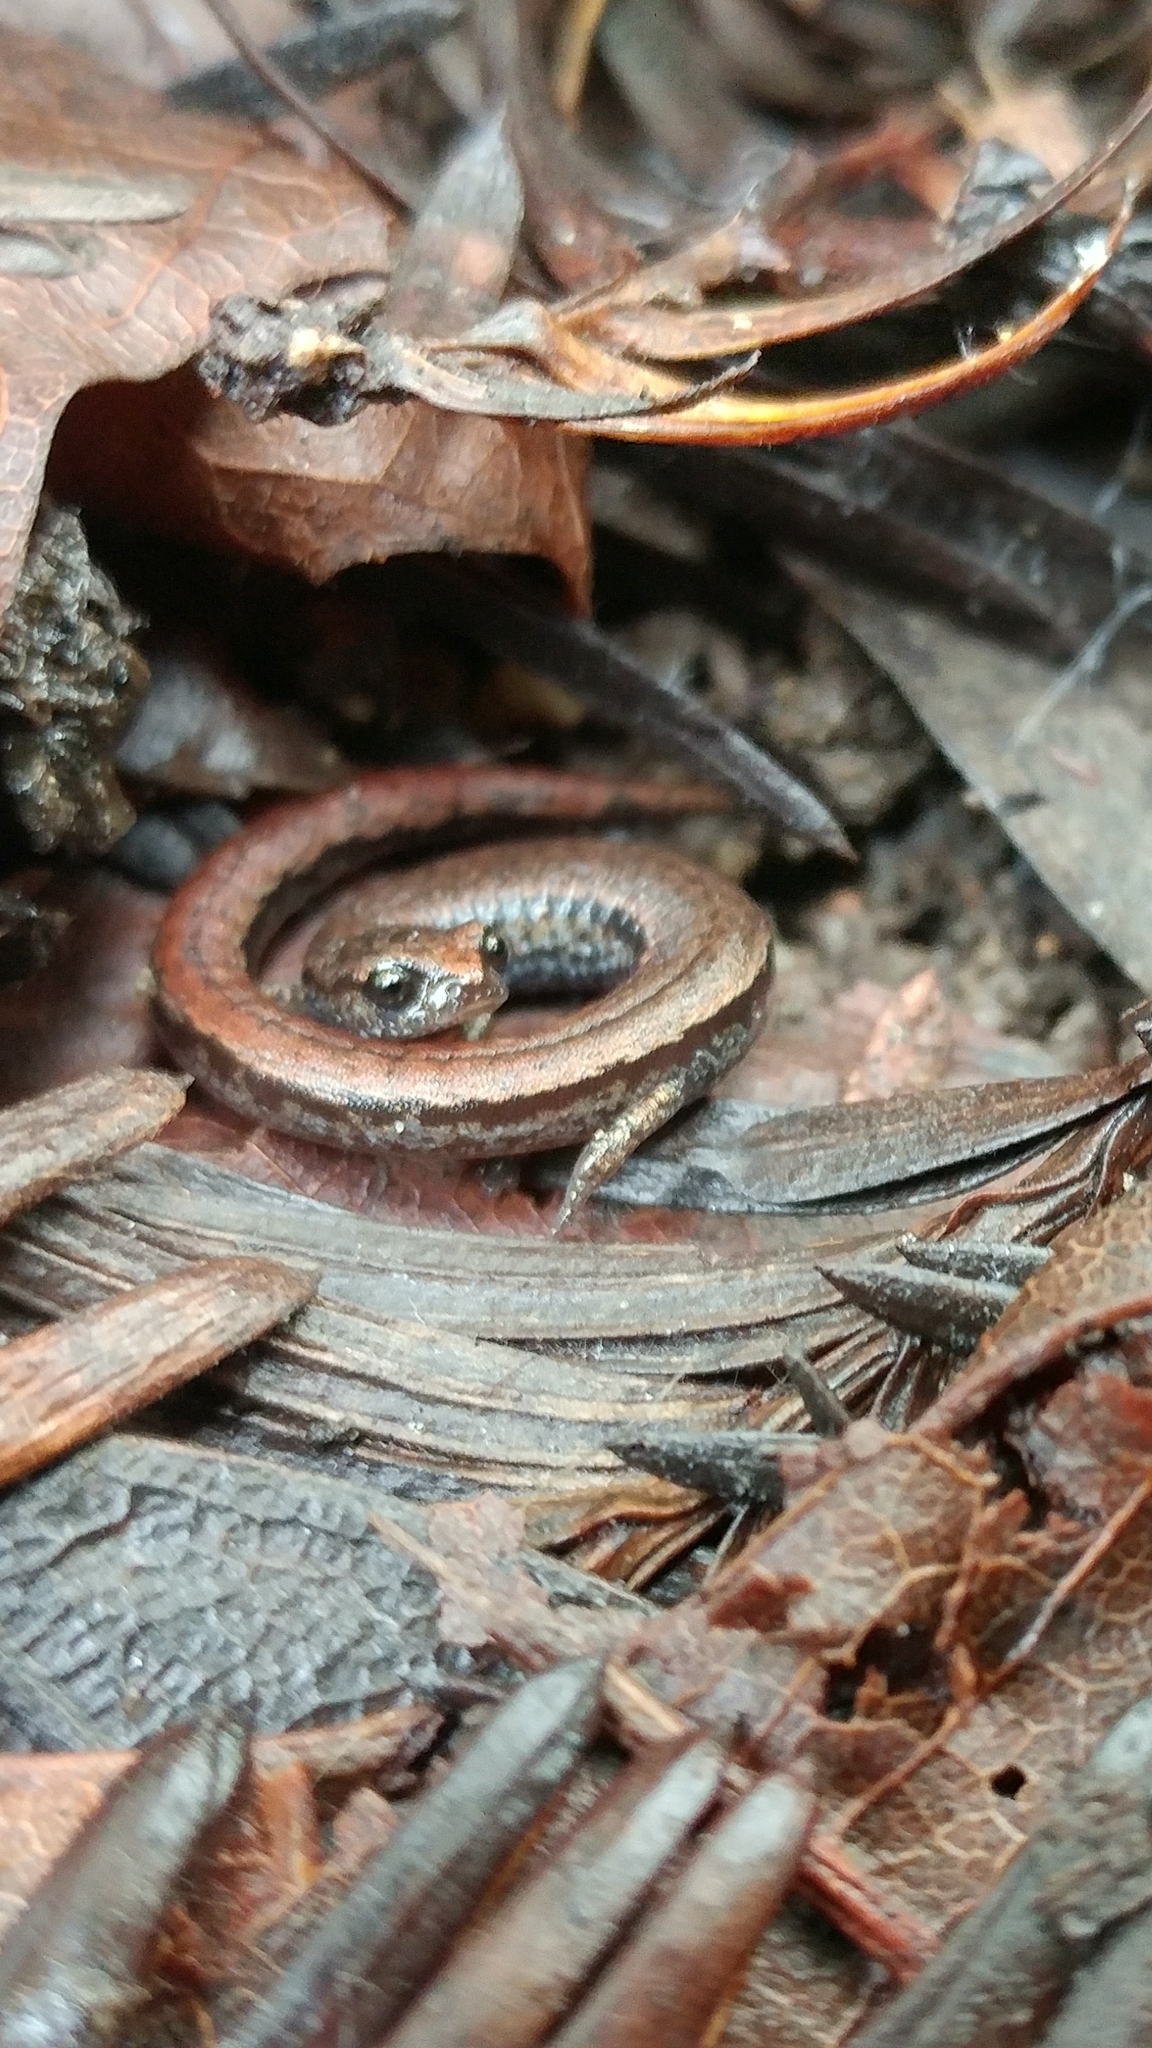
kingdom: Animalia
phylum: Chordata
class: Amphibia
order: Caudata
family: Plethodontidae
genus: Batrachoseps
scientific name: Batrachoseps luciae
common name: Santa lucia mountains slender salamander
